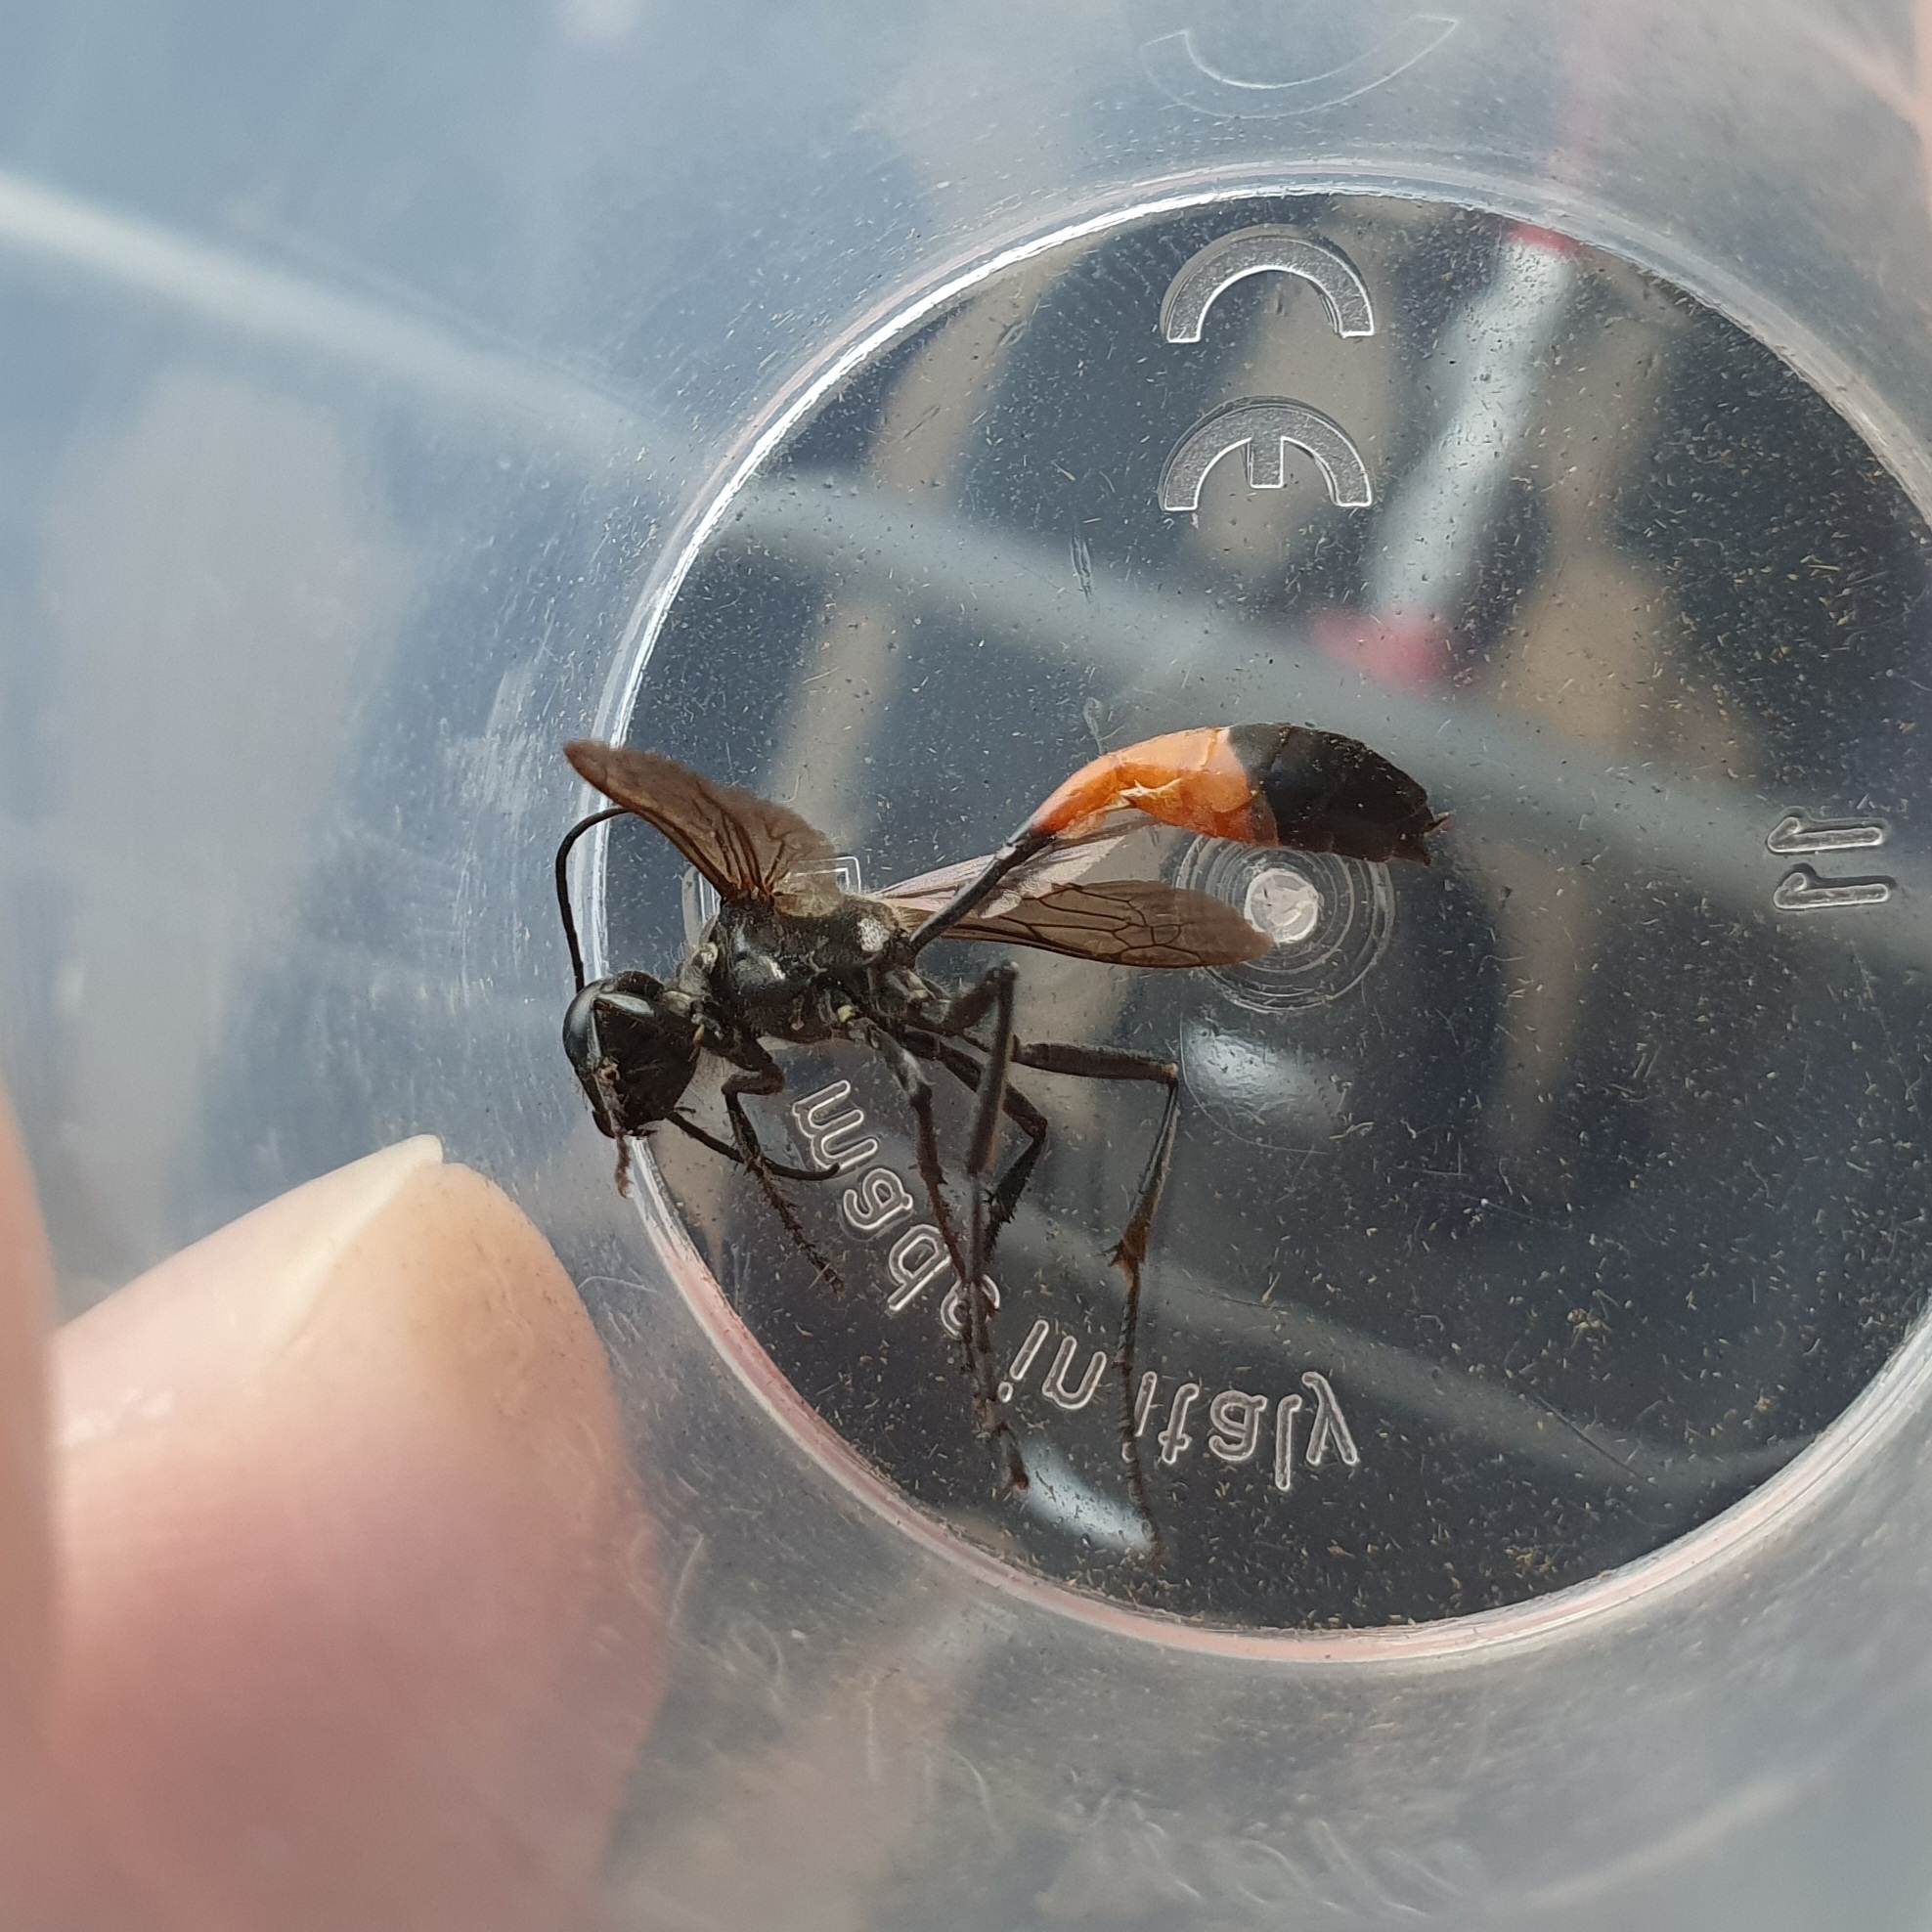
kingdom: Animalia
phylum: Arthropoda
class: Insecta
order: Hymenoptera
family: Sphecidae
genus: Ammophila
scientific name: Ammophila sabulosa
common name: Red banded sand wasp
